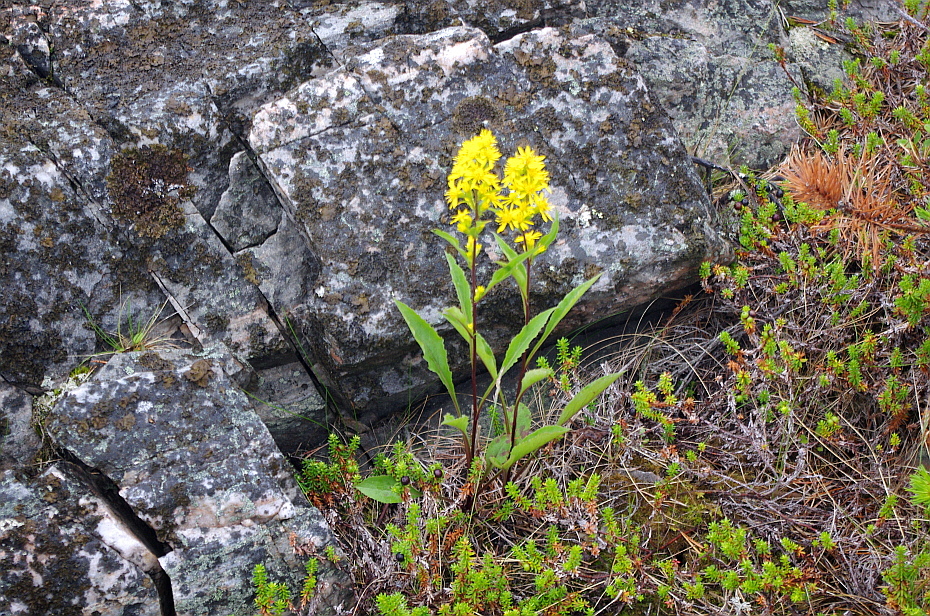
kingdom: Plantae
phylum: Tracheophyta
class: Magnoliopsida
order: Asterales
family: Asteraceae
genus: Solidago
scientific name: Solidago virgaurea
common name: Goldenrod
